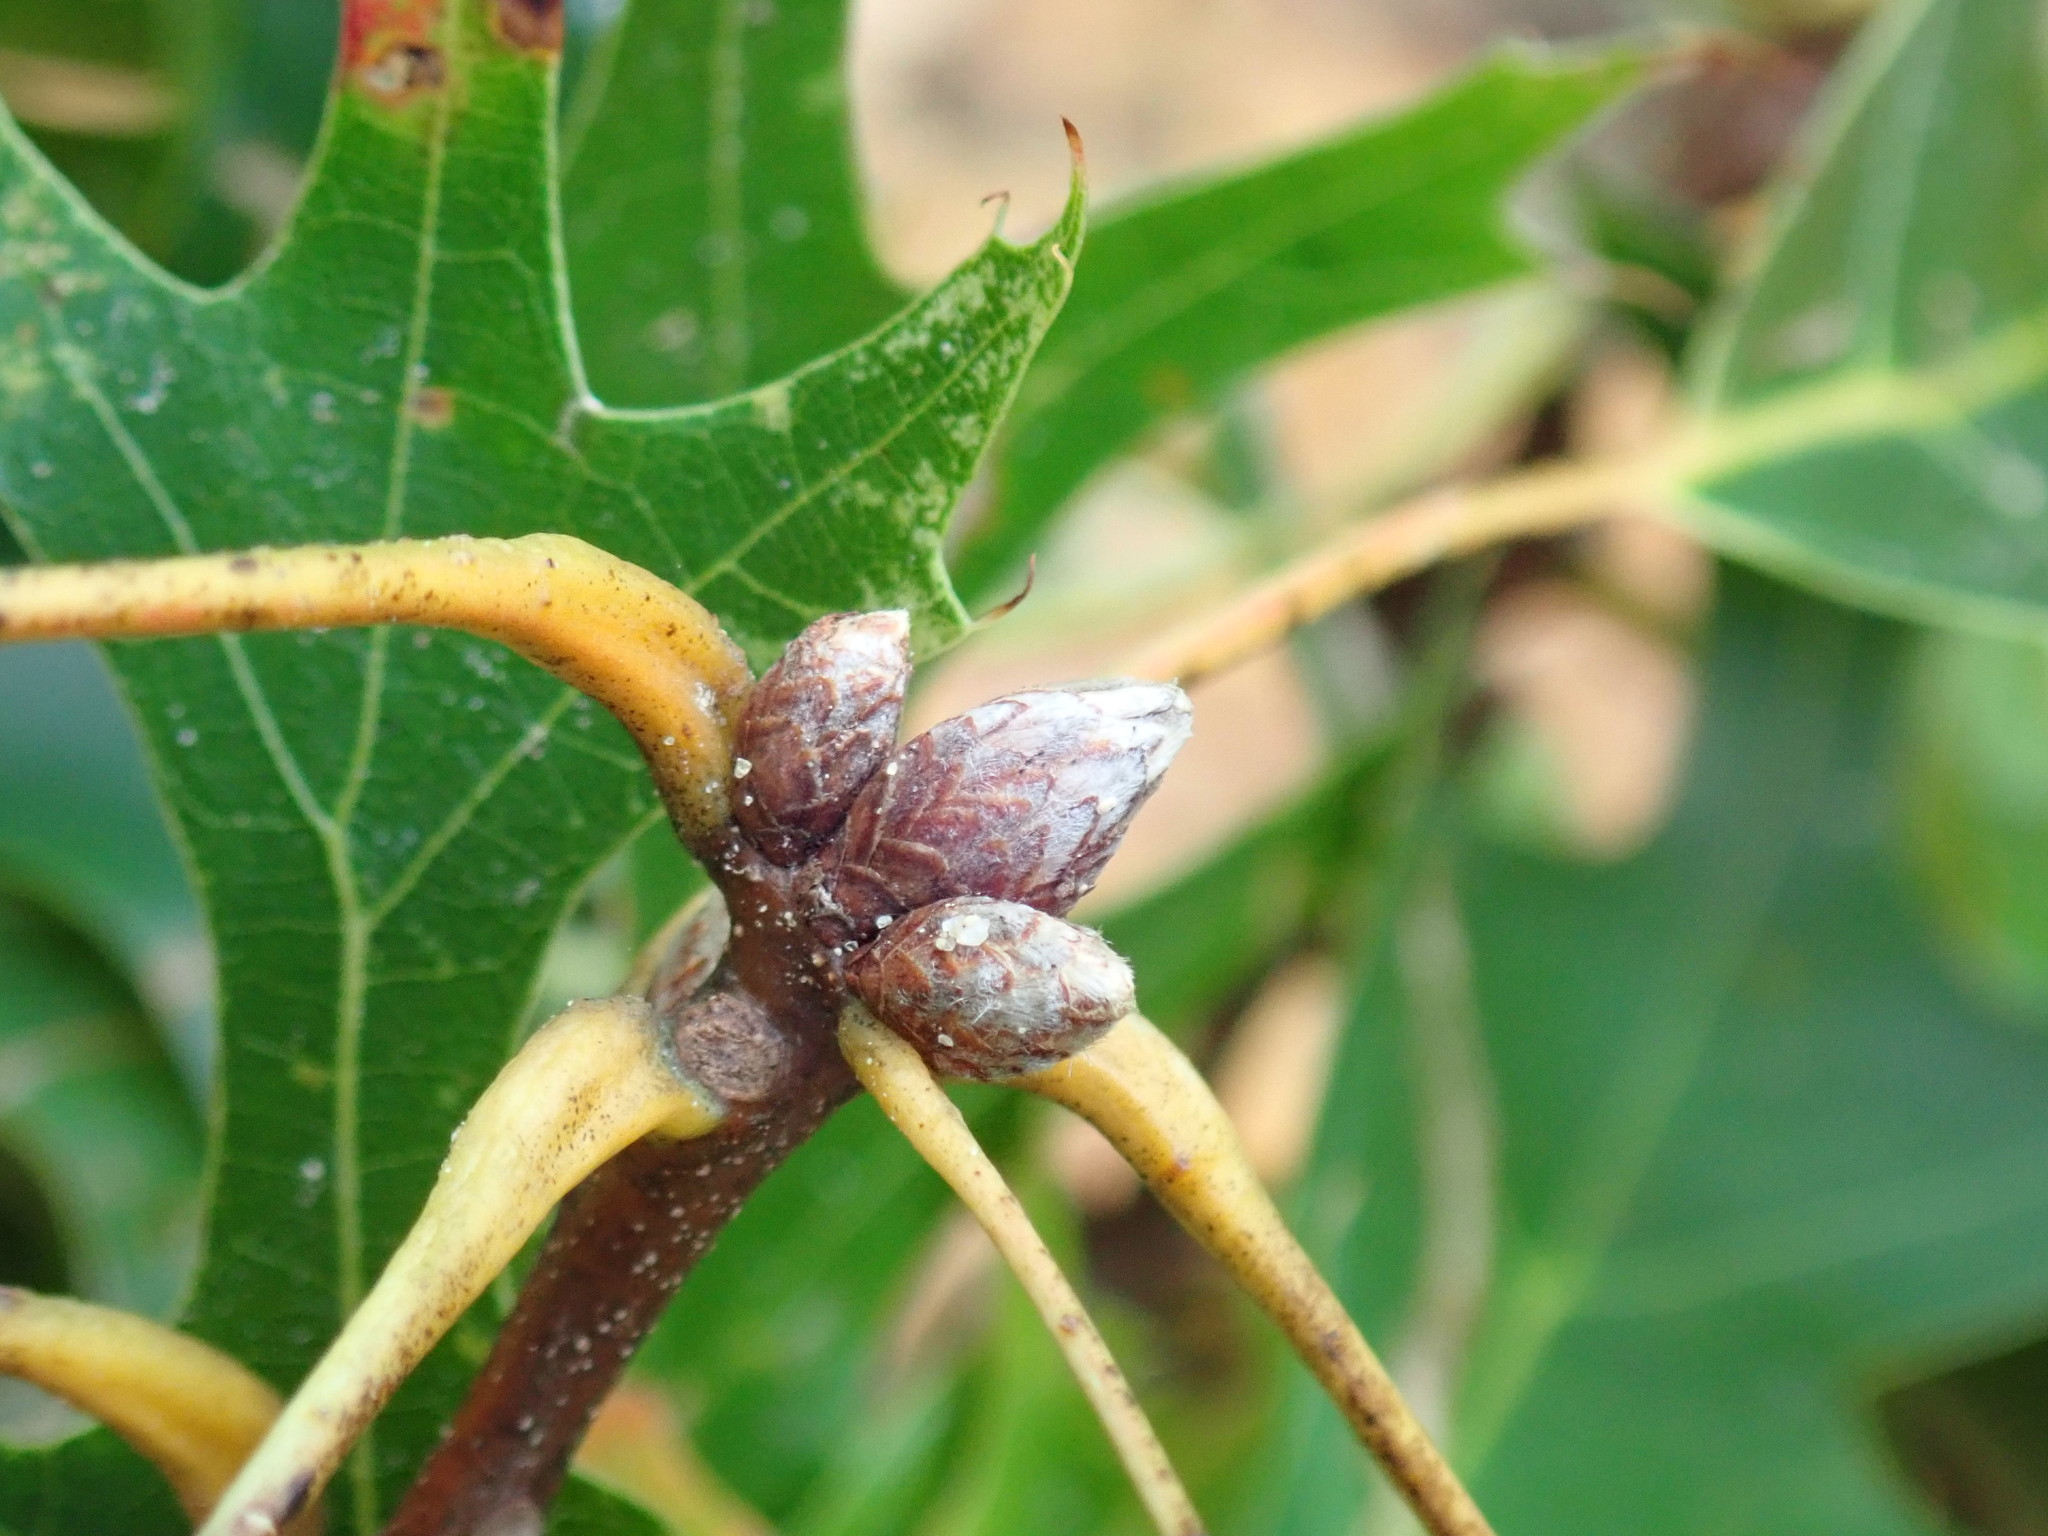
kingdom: Plantae
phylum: Tracheophyta
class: Magnoliopsida
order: Fagales
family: Fagaceae
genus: Quercus
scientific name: Quercus coccinea
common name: Scarlet oak
